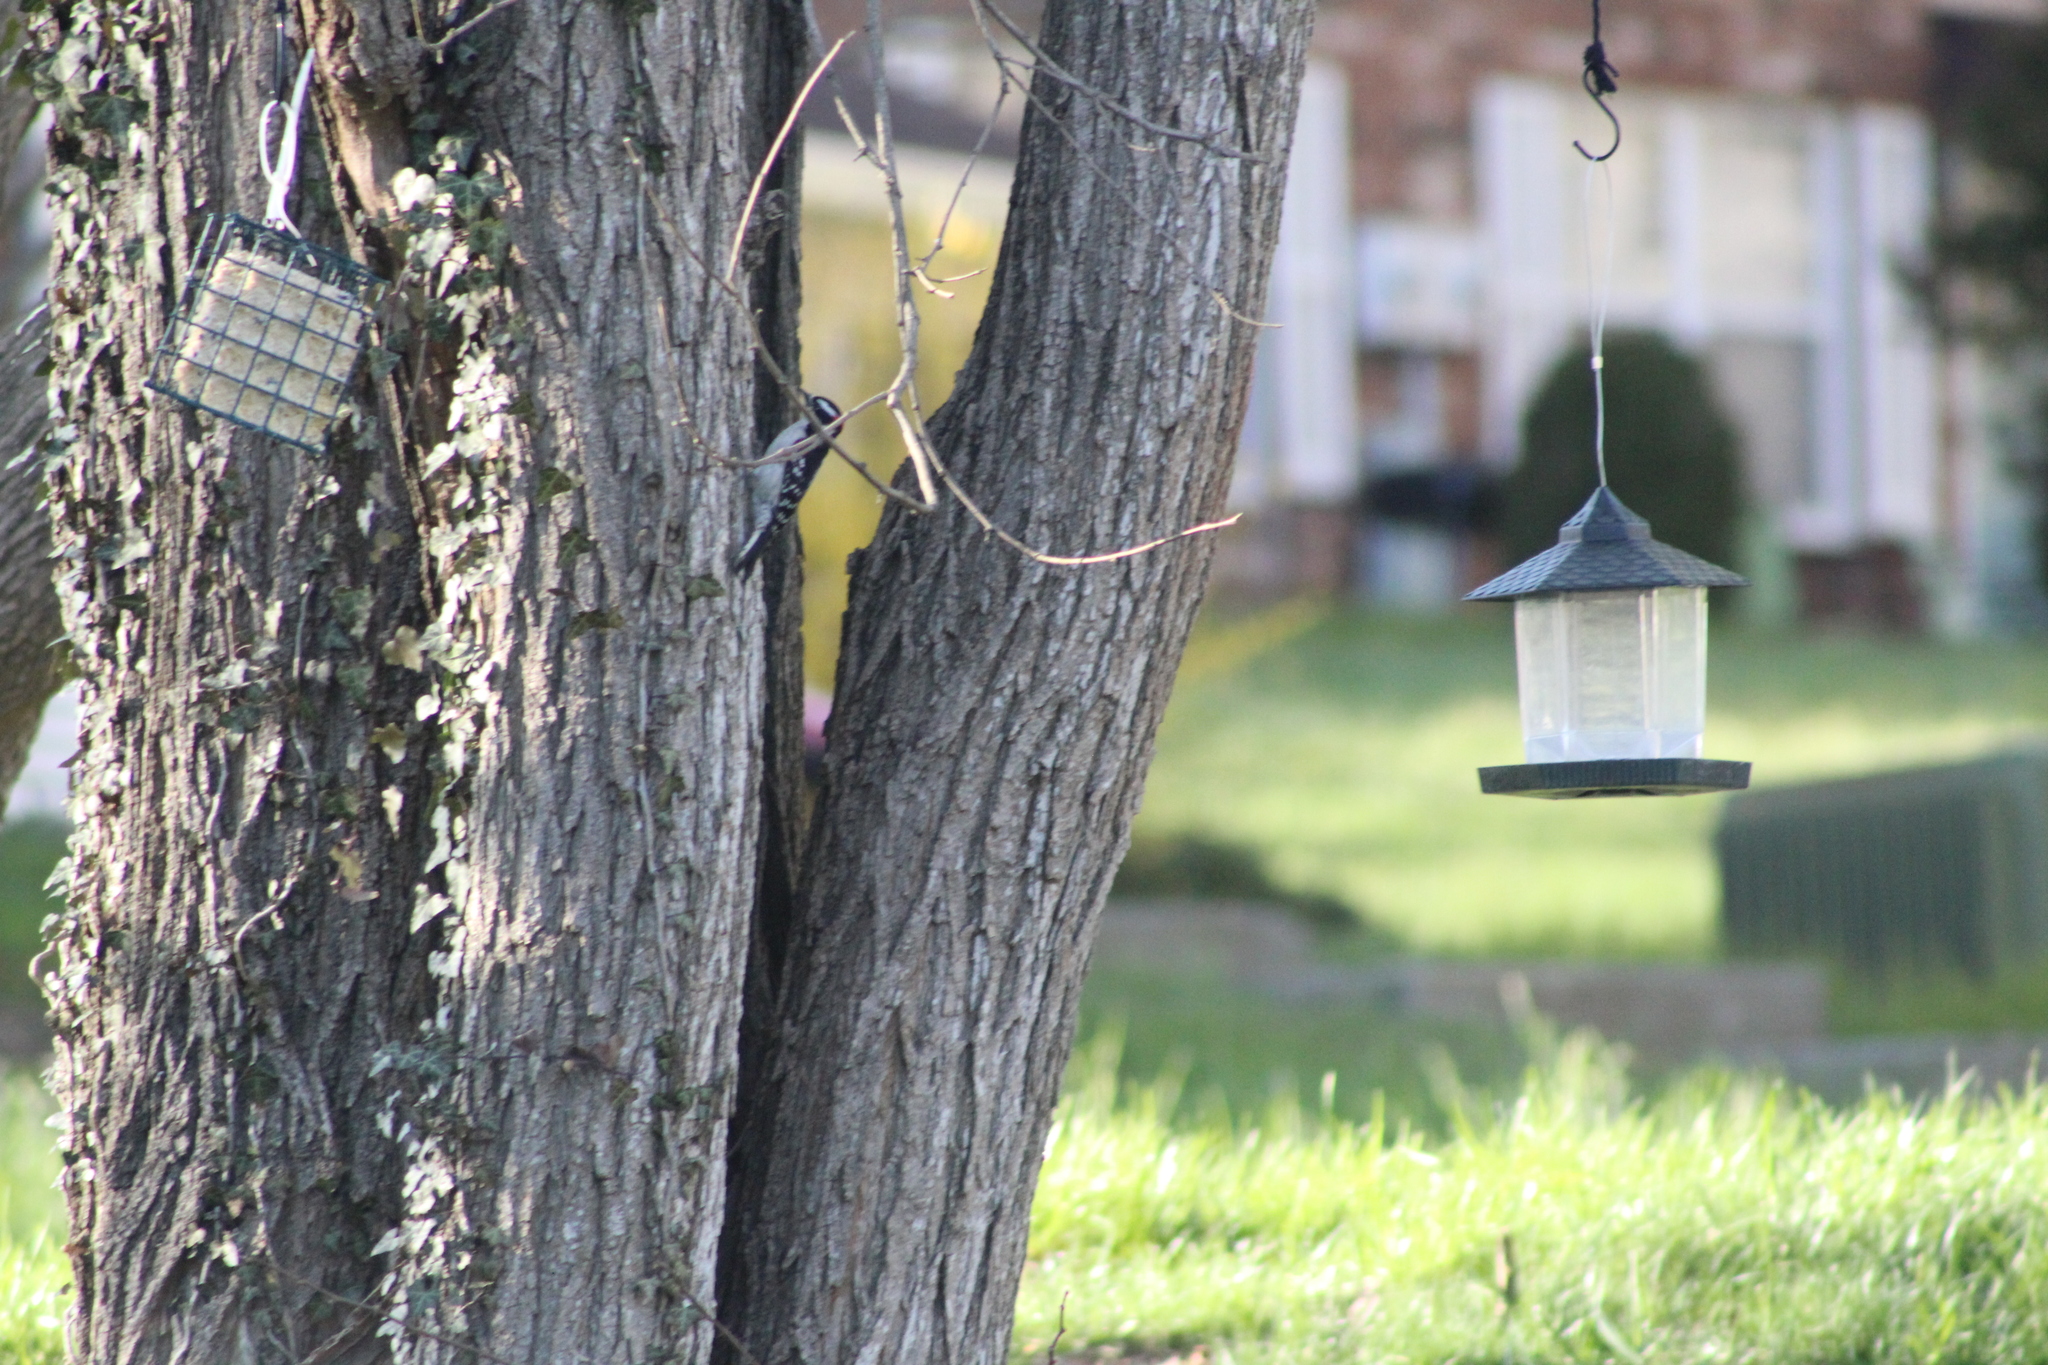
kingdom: Animalia
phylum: Chordata
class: Aves
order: Piciformes
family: Picidae
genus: Dryobates
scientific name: Dryobates pubescens
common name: Downy woodpecker
